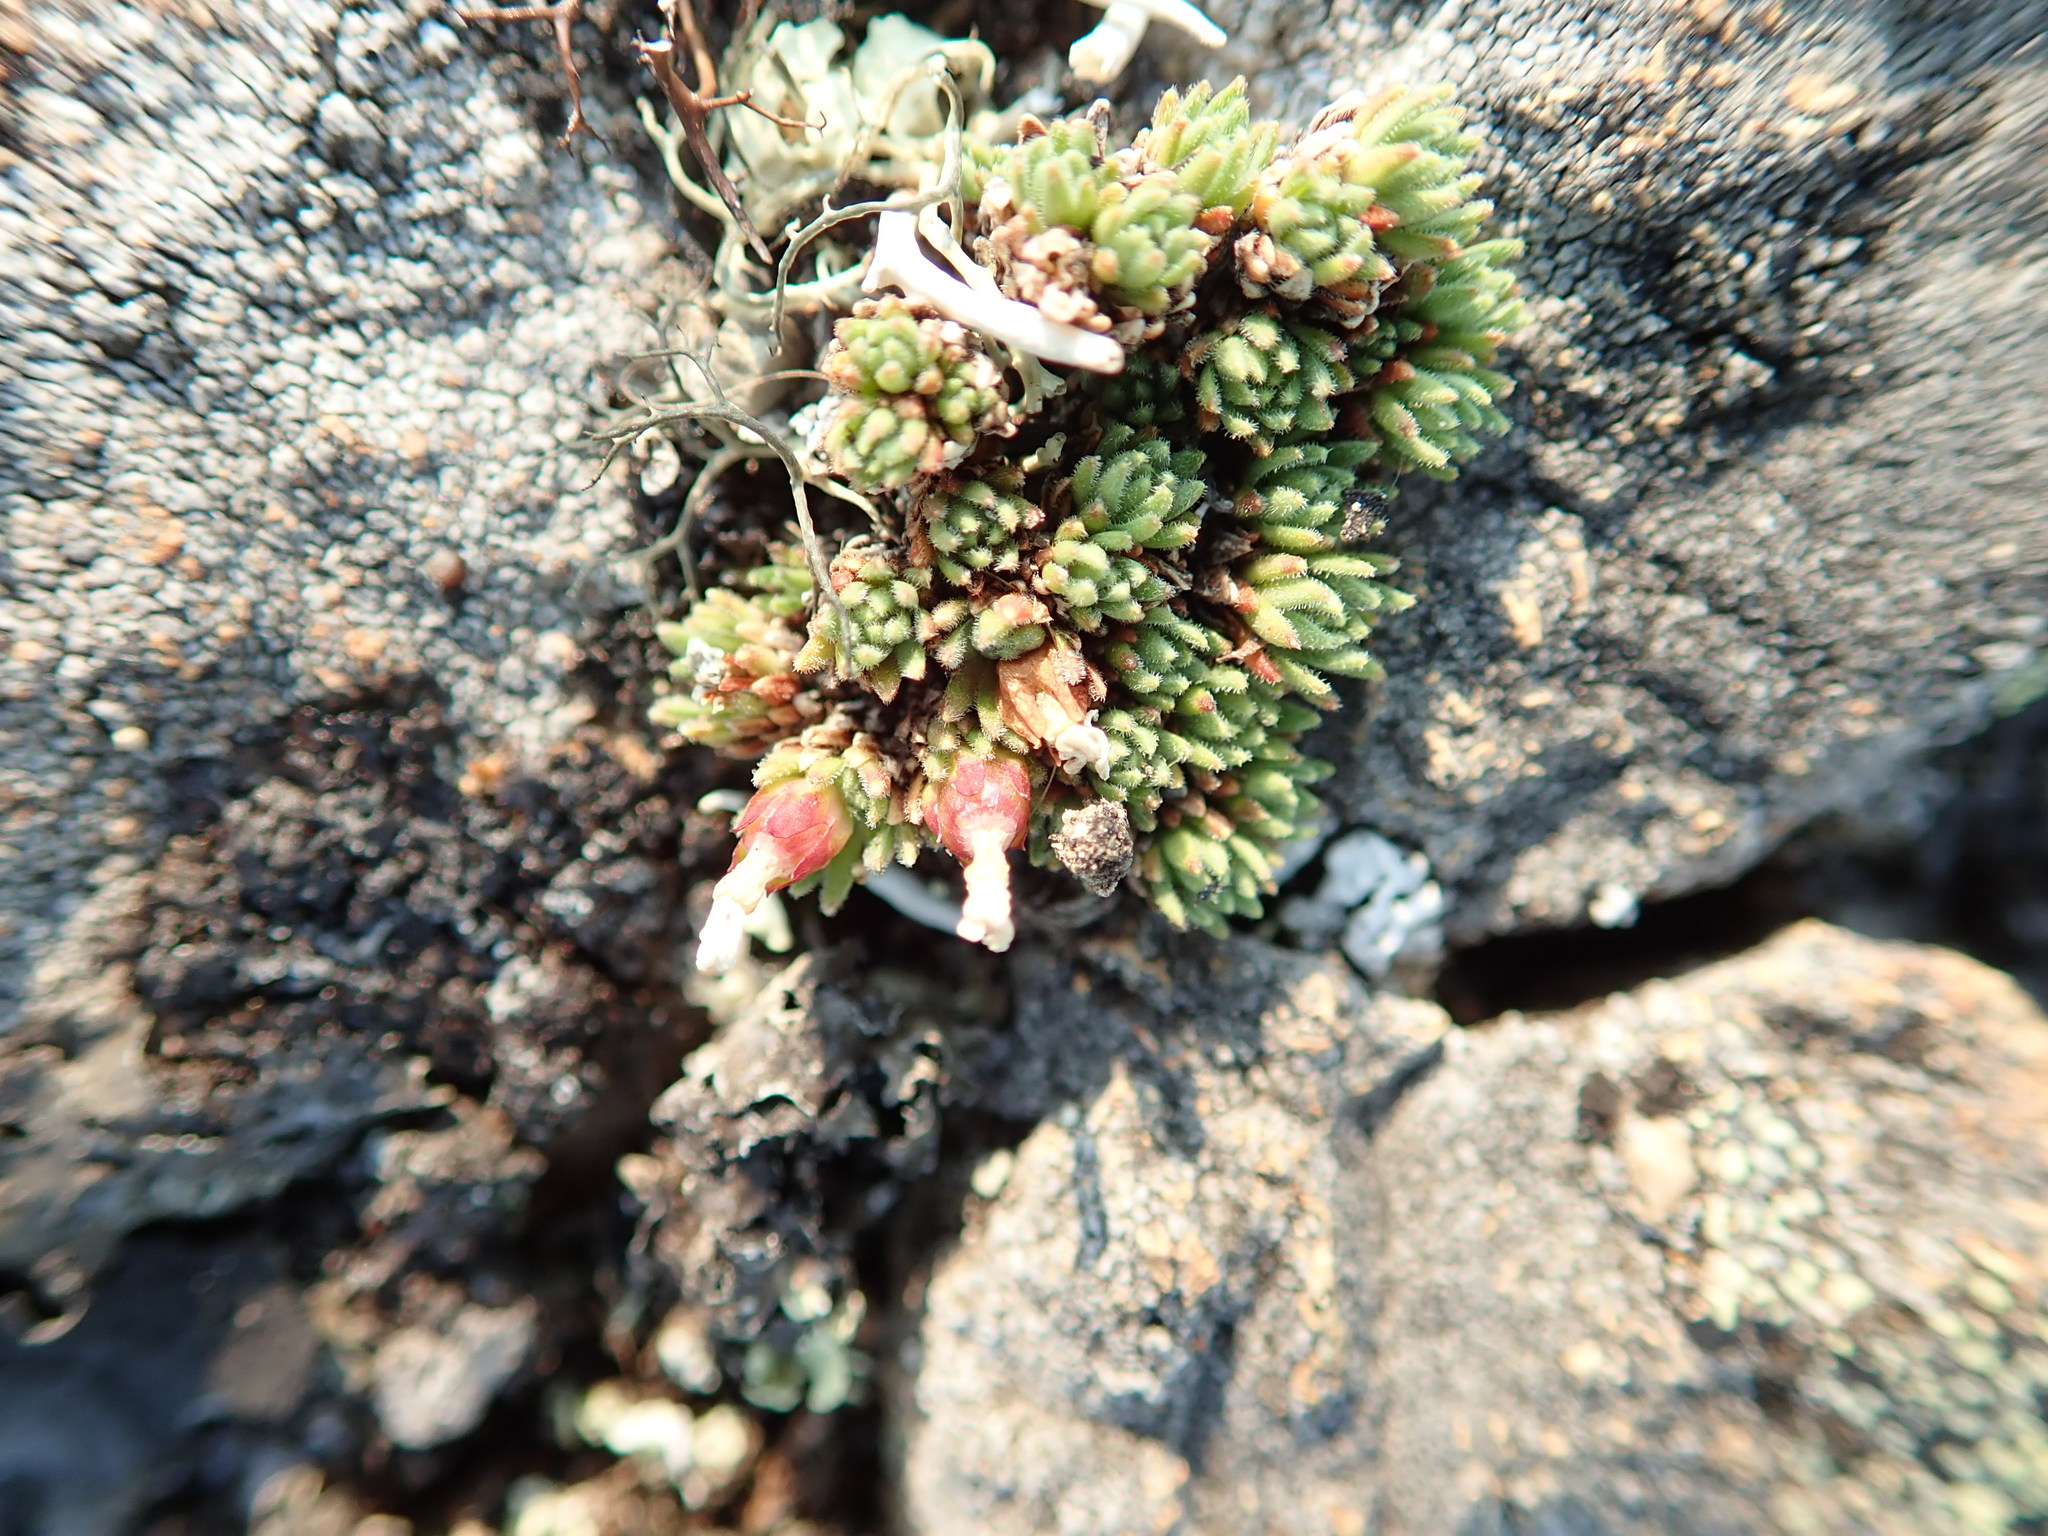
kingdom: Plantae
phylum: Tracheophyta
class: Magnoliopsida
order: Ericales
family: Primulaceae
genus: Androsace
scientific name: Androsace constancei
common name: Gorman's dwarf-primrose
